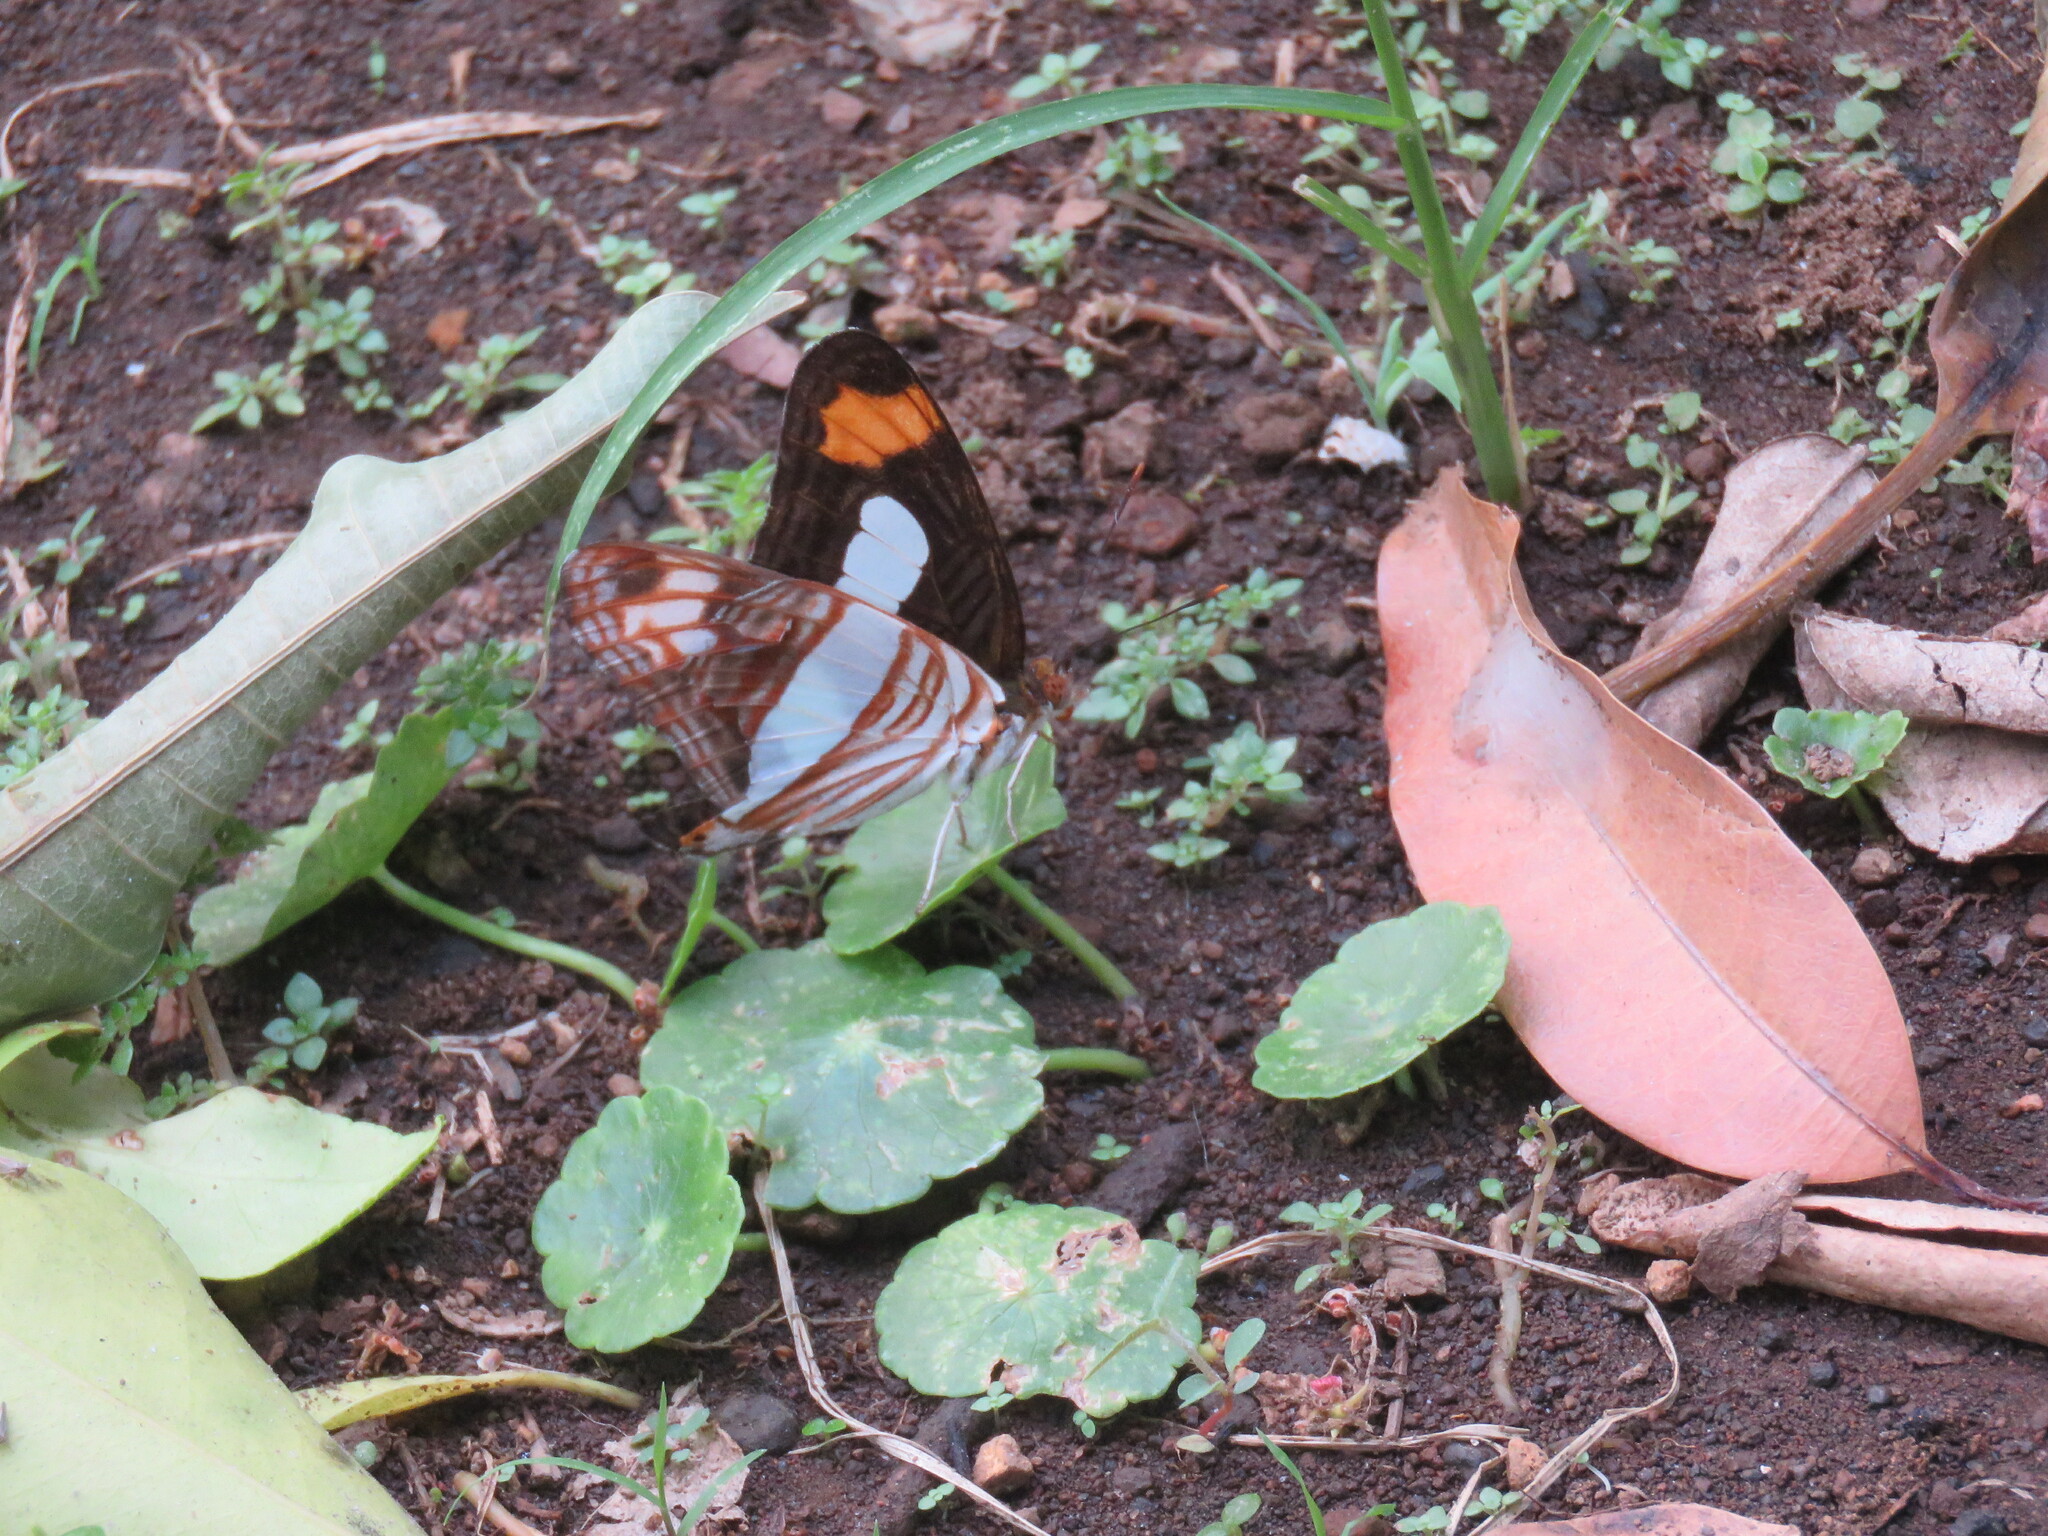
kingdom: Animalia
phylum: Arthropoda
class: Insecta
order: Lepidoptera
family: Nymphalidae
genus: Limenitis
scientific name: Limenitis iphiclus
